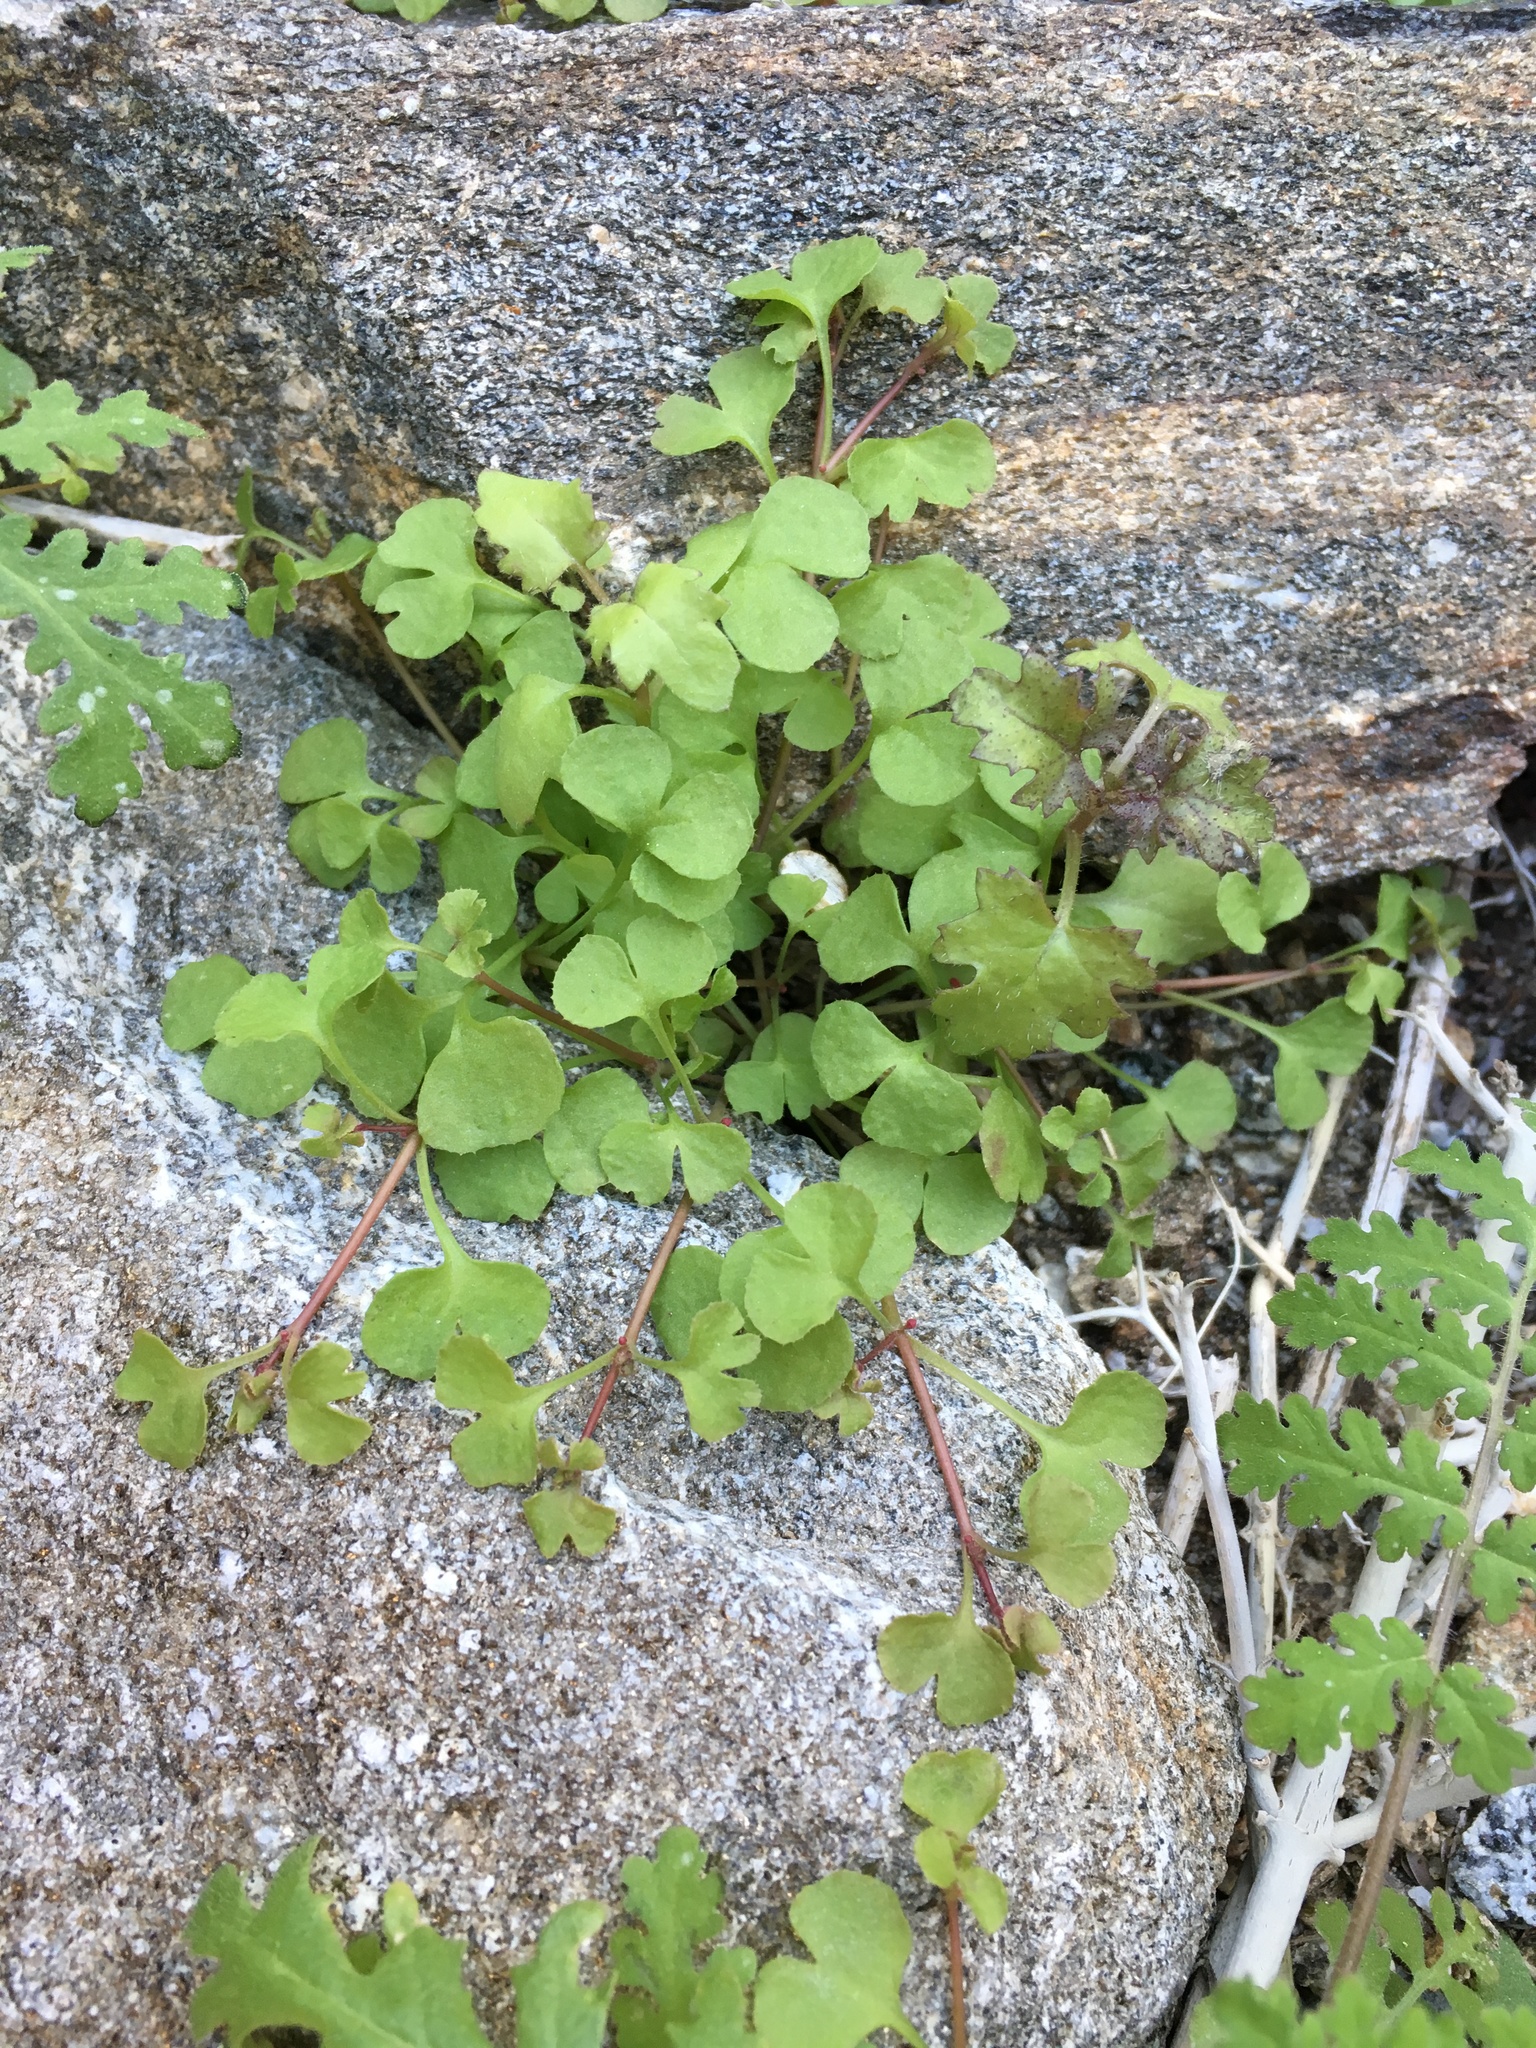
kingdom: Plantae
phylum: Tracheophyta
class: Magnoliopsida
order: Caryophyllales
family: Polygonaceae
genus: Pterostegia
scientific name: Pterostegia drymarioides
